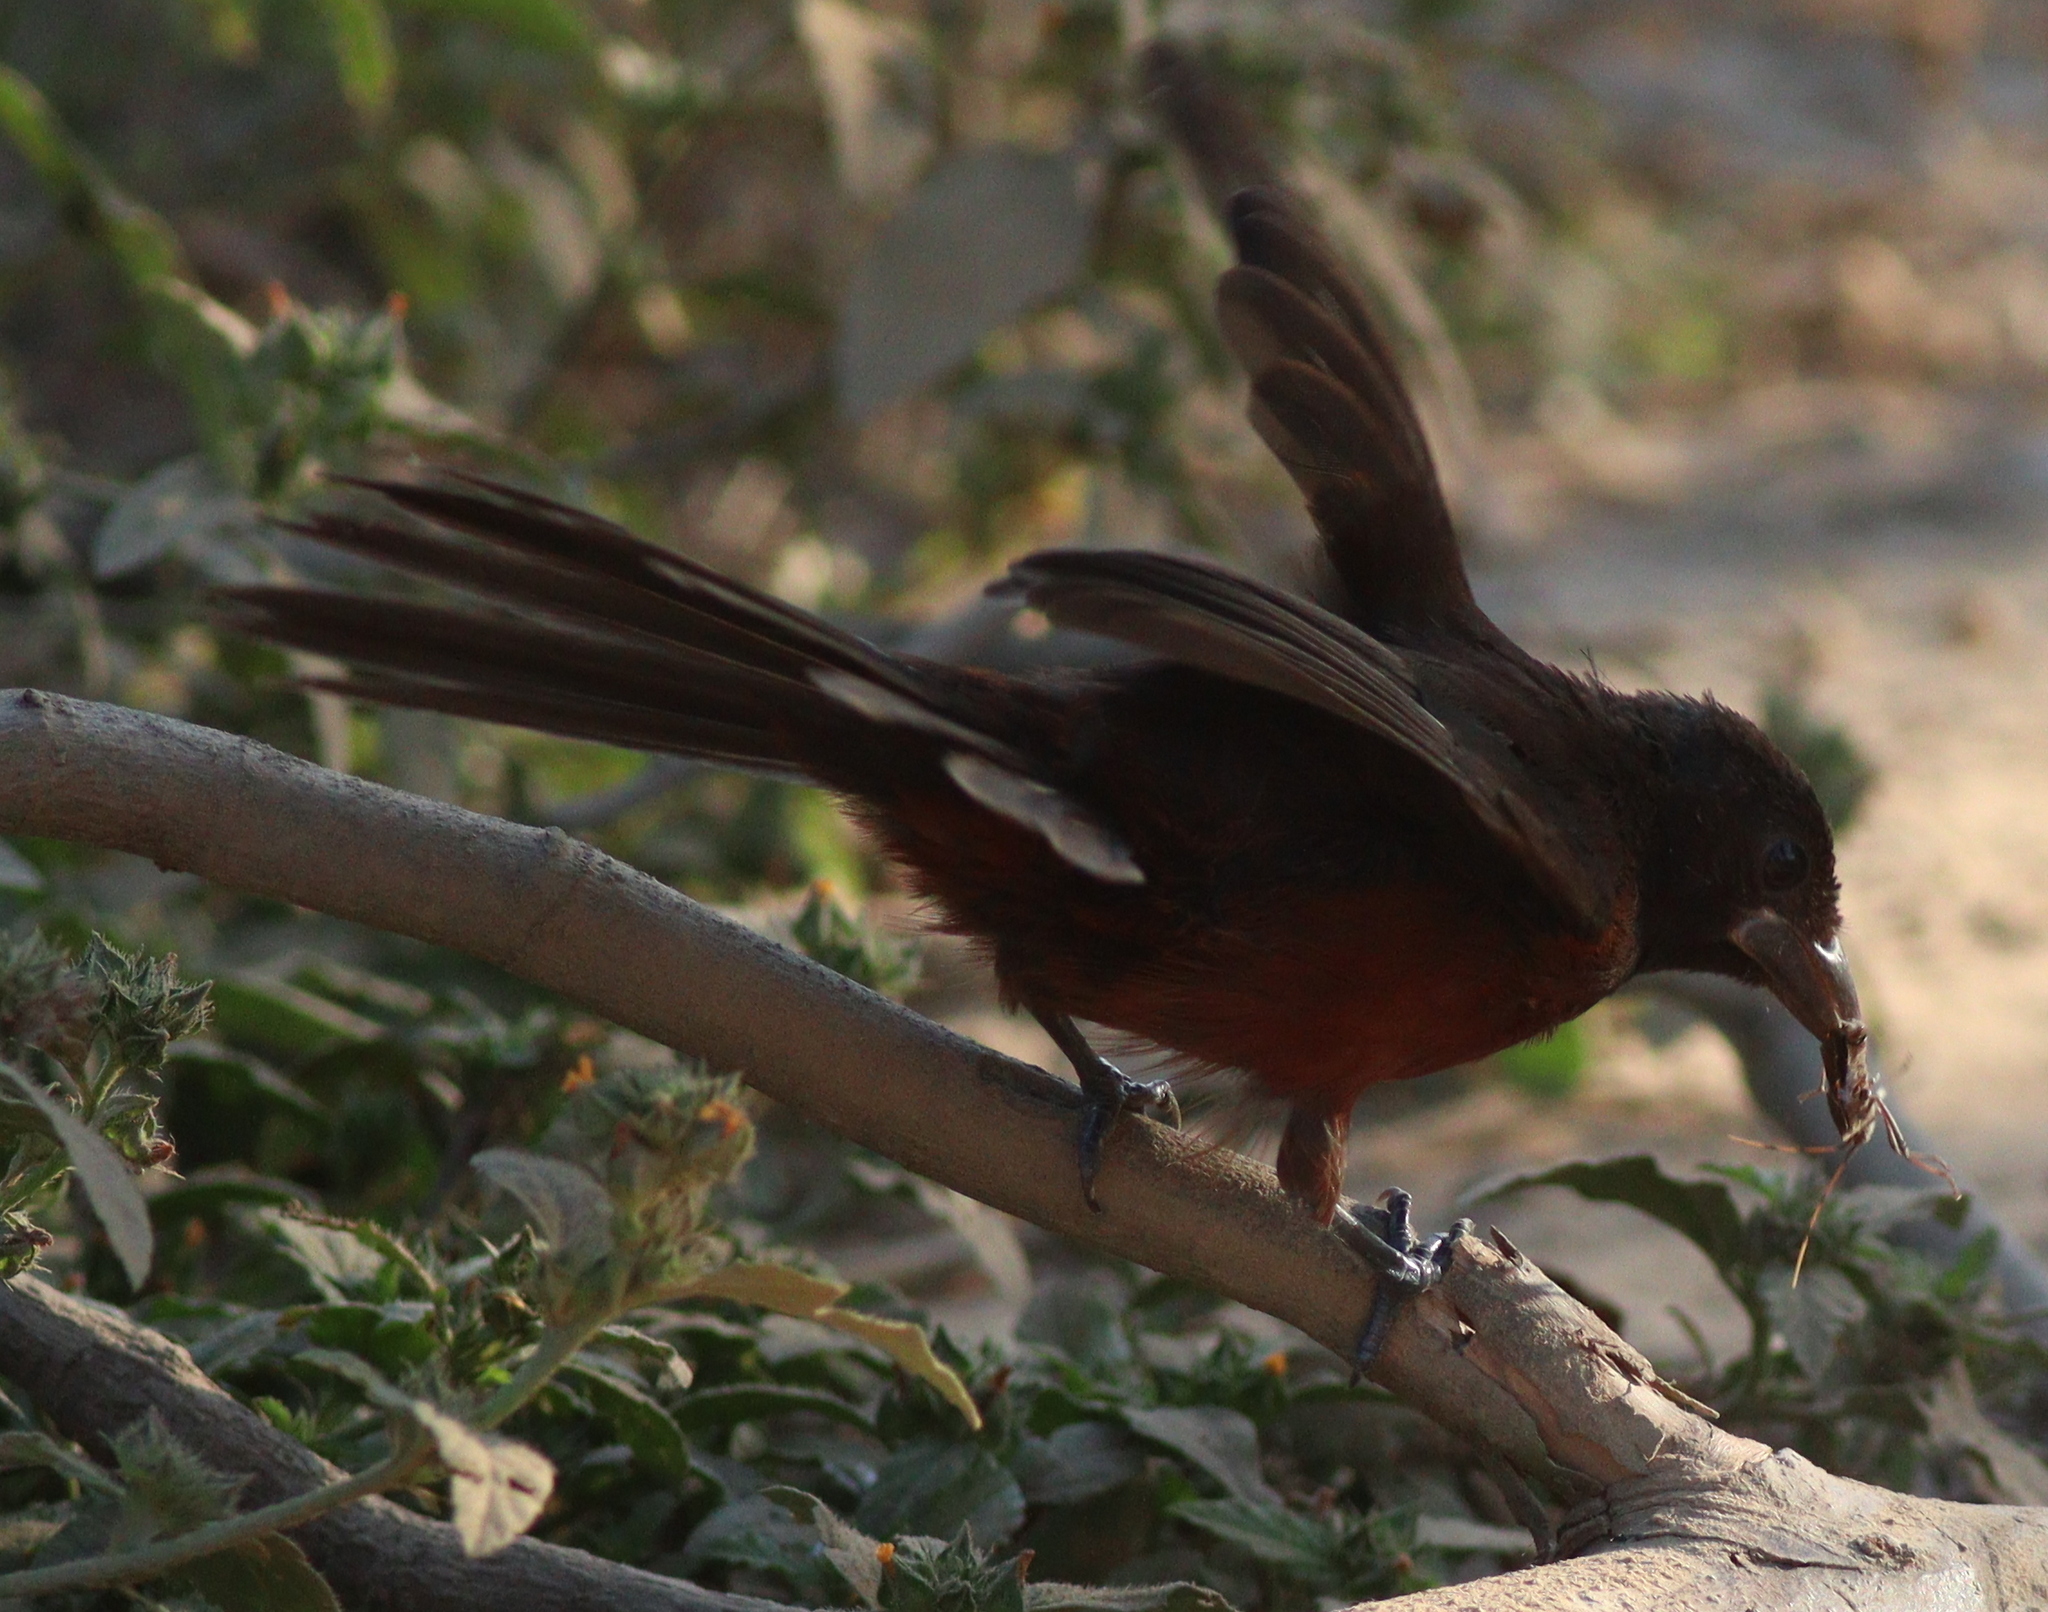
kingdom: Animalia
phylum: Chordata
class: Aves
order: Passeriformes
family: Thraupidae
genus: Ramphocelus
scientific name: Ramphocelus carbo
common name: Silver-beaked tanager
